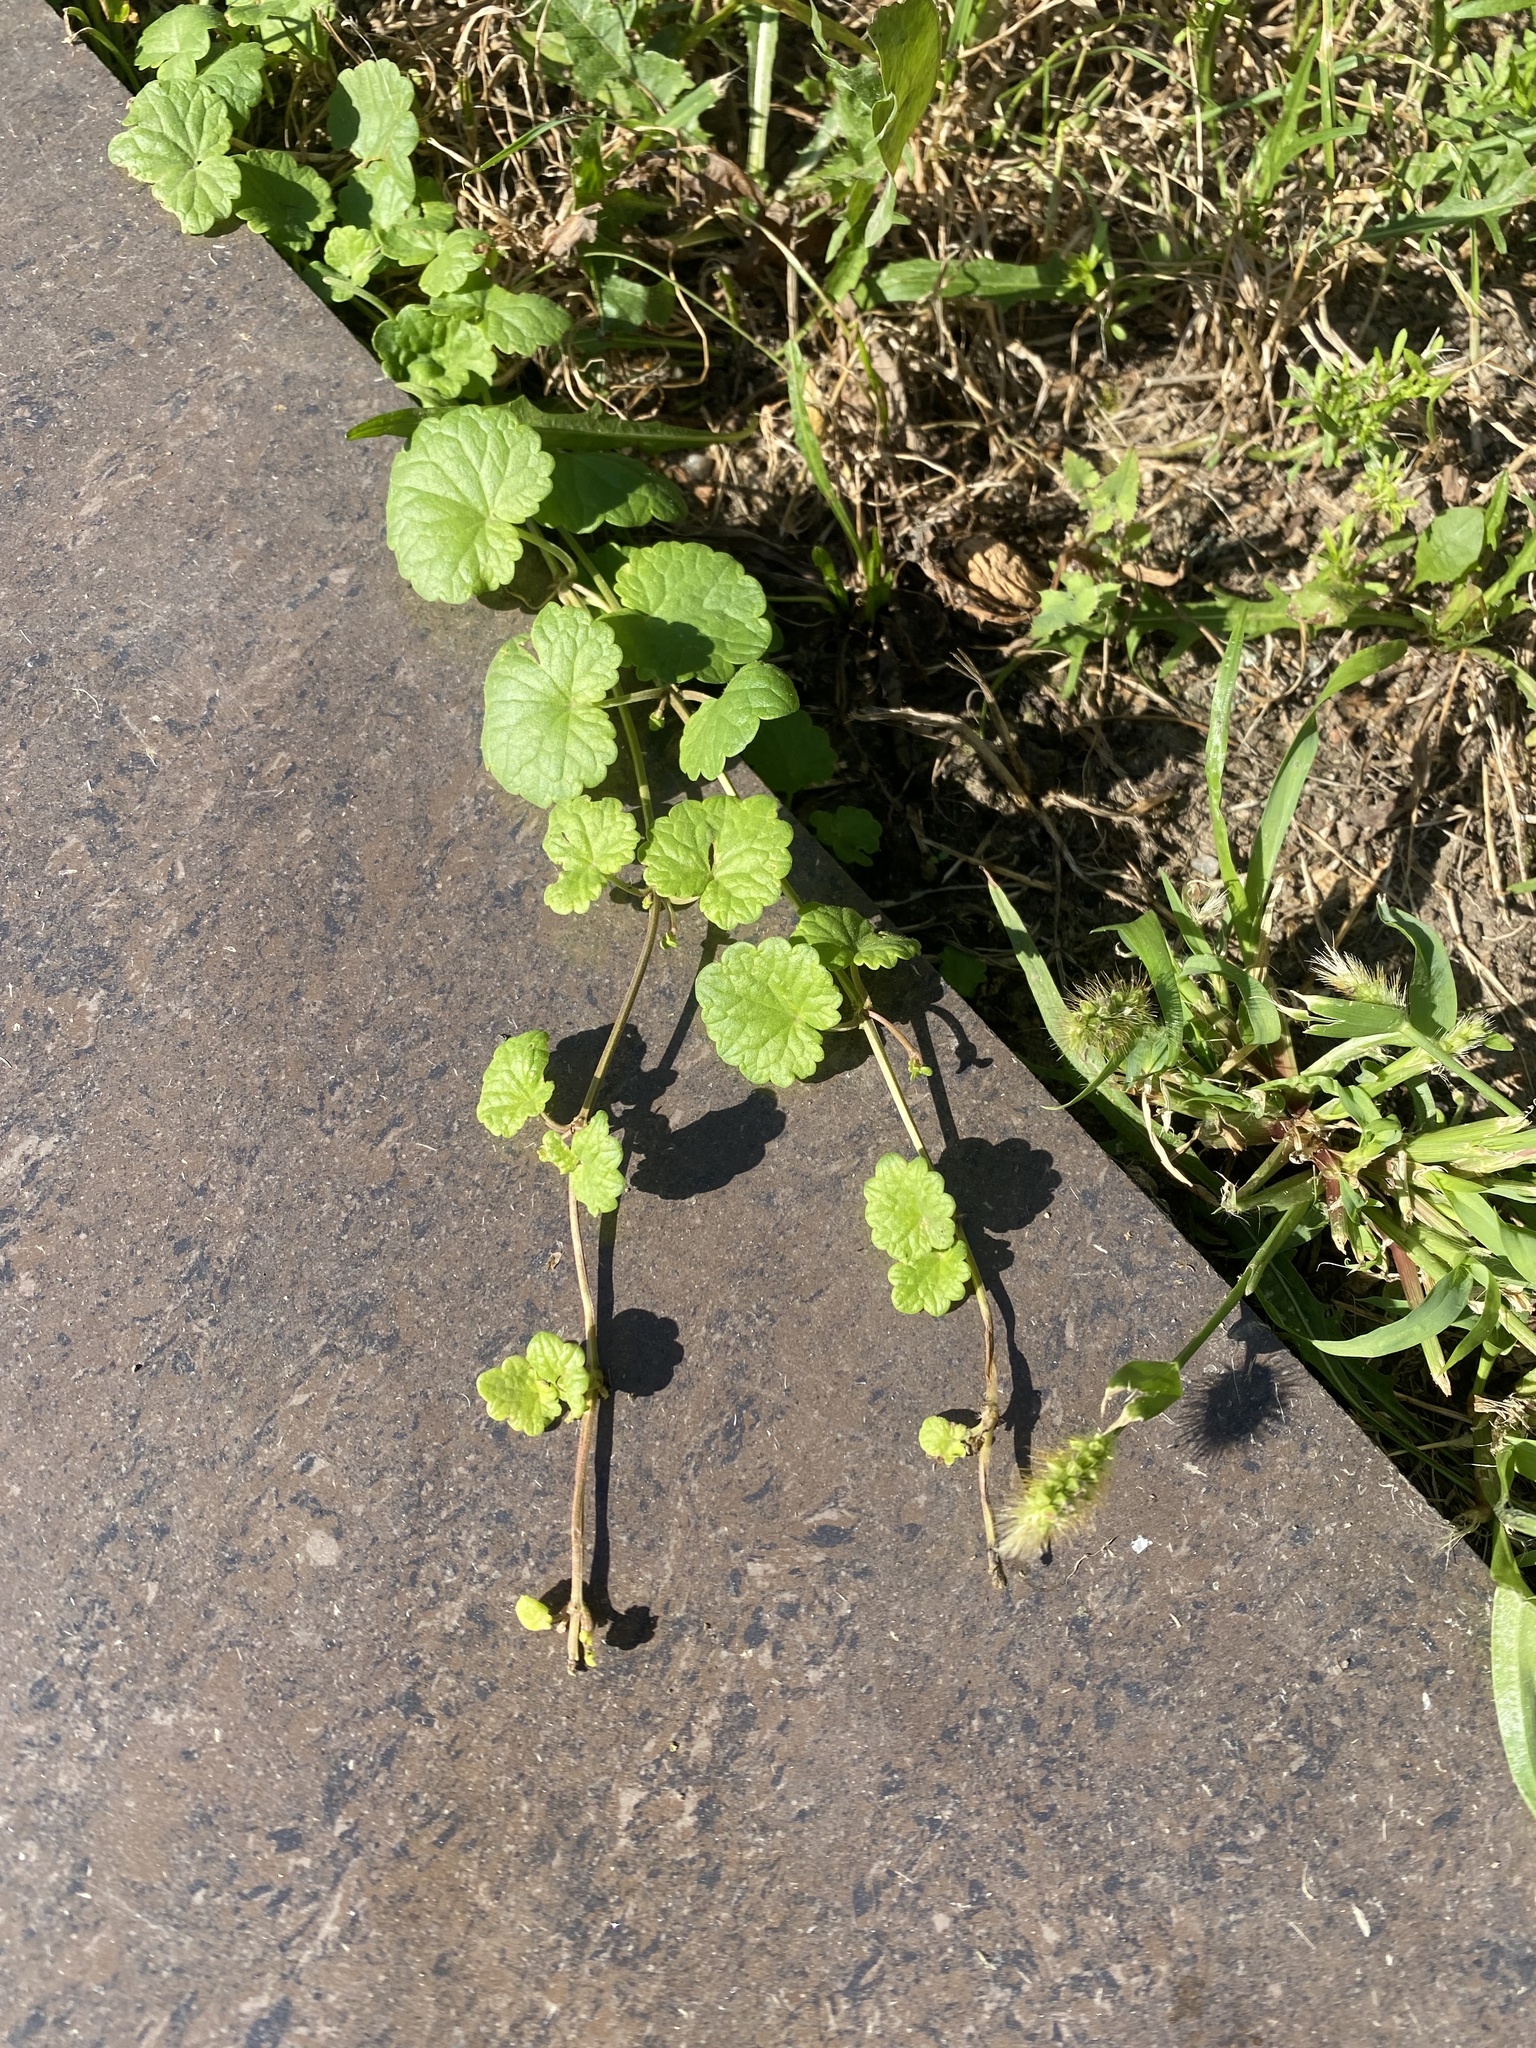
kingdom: Plantae
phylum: Tracheophyta
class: Magnoliopsida
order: Lamiales
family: Lamiaceae
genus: Glechoma
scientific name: Glechoma hederacea
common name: Ground ivy
